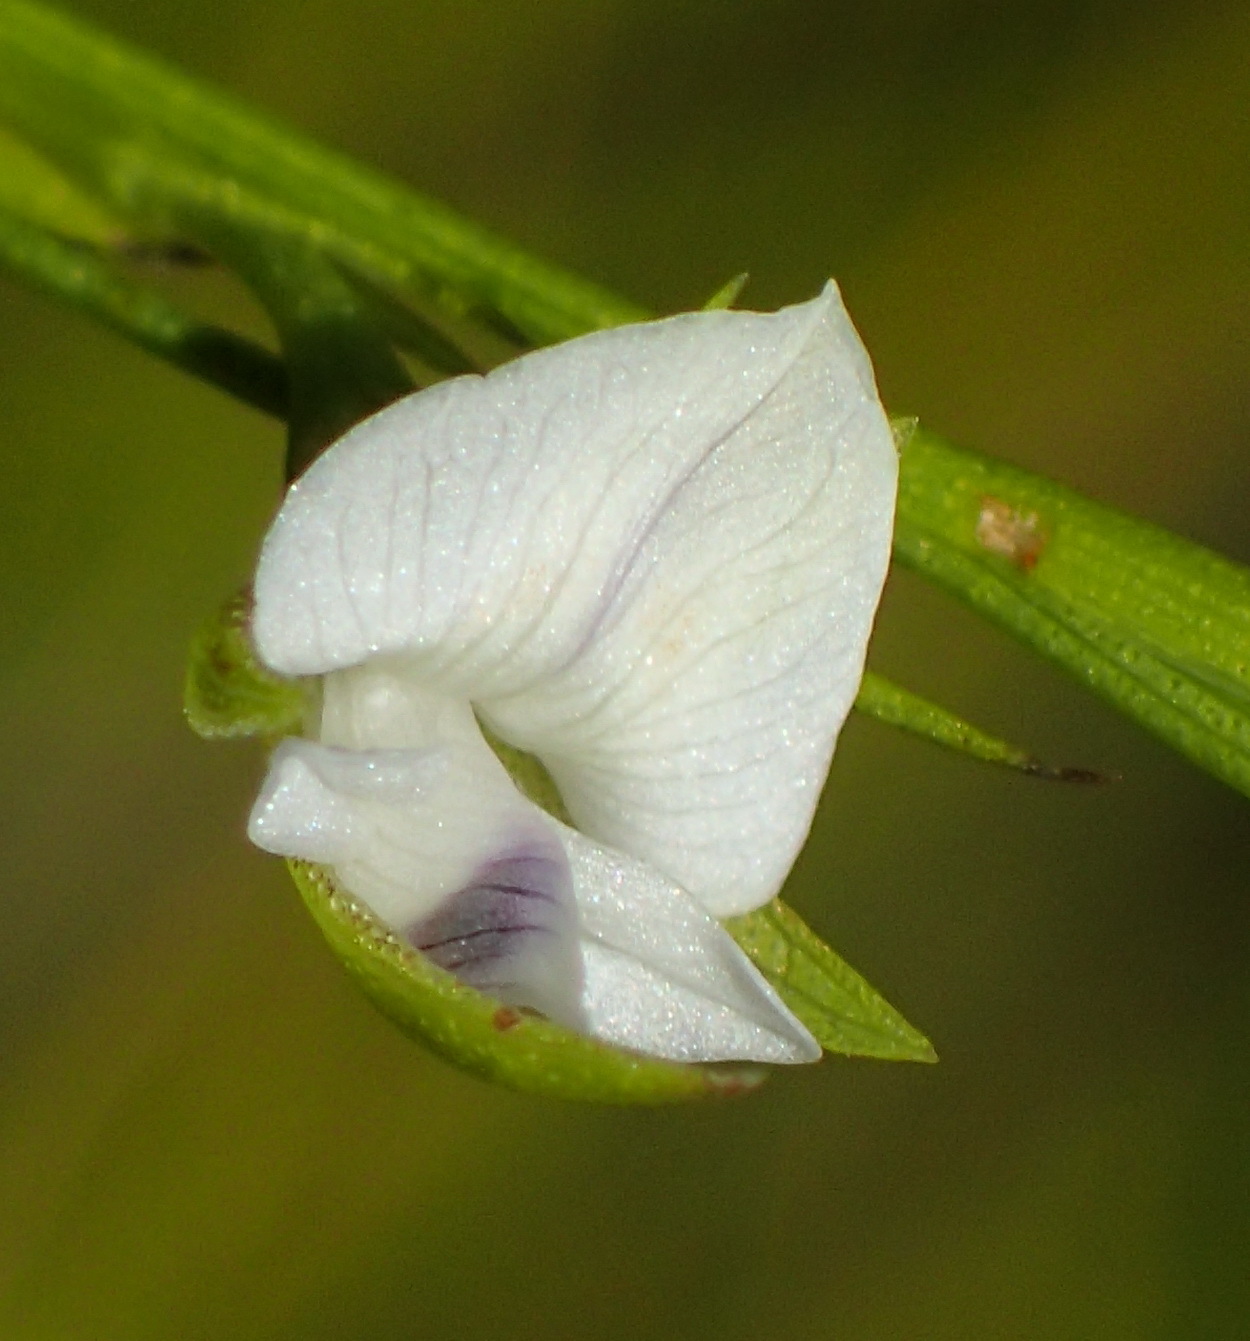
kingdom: Plantae
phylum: Tracheophyta
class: Magnoliopsida
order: Fabales
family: Fabaceae
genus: Psoralea
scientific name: Psoralea
